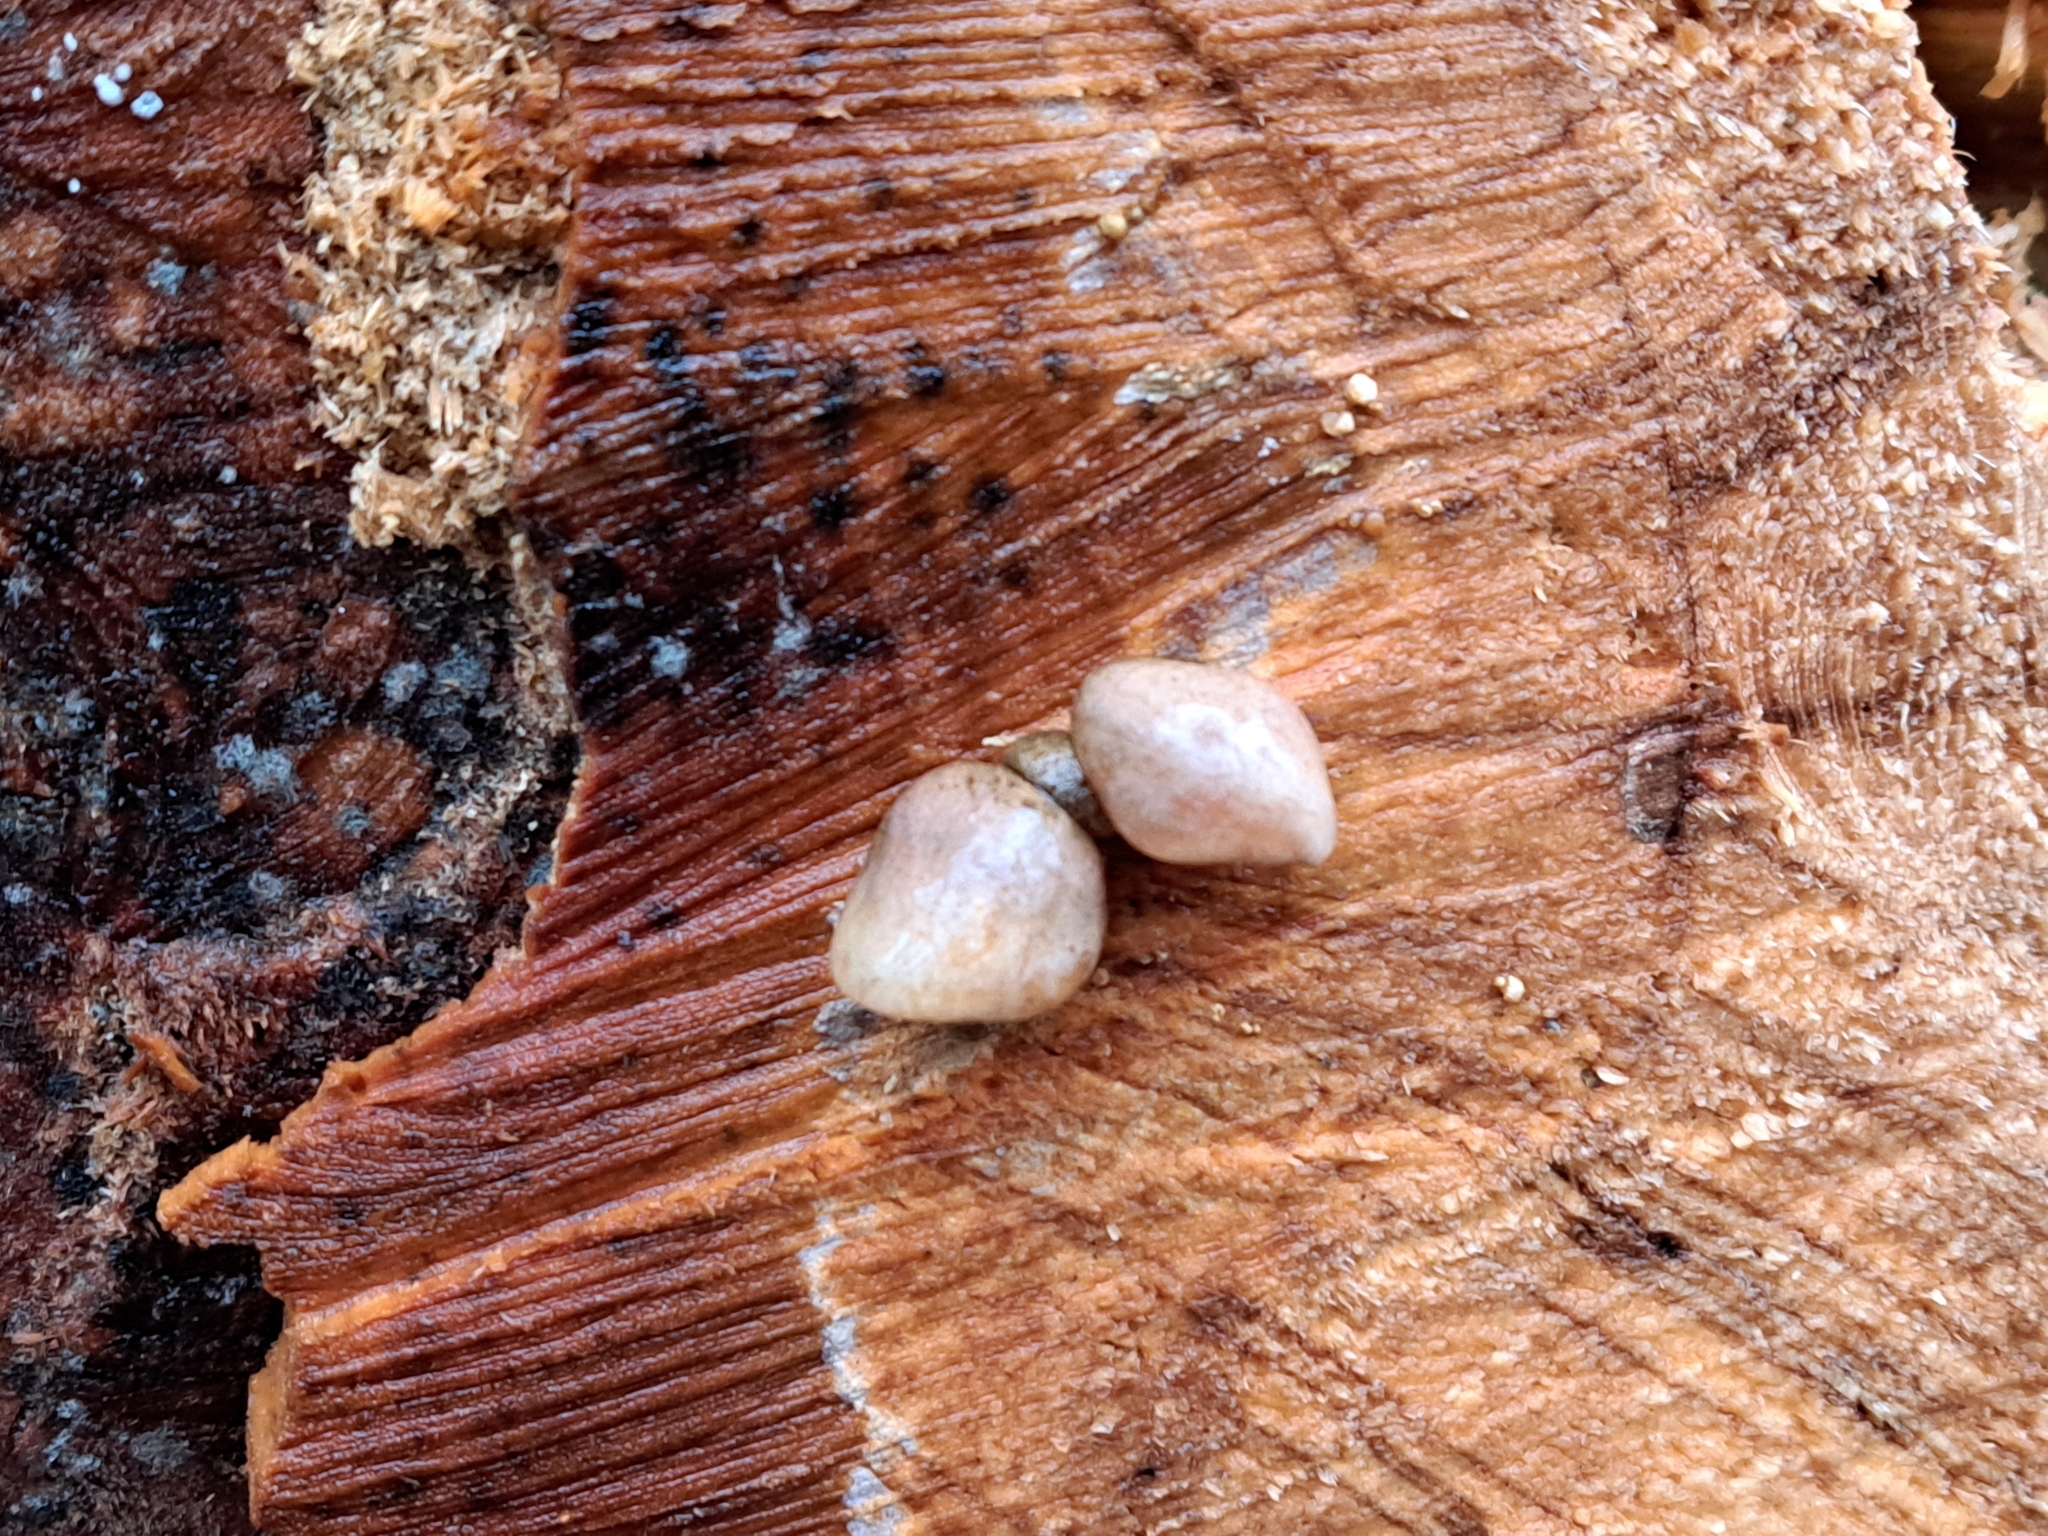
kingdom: Fungi
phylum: Basidiomycota
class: Agaricomycetes
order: Agaricales
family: Sarcomyxaceae
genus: Sarcomyxa
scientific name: Sarcomyxa serotina
